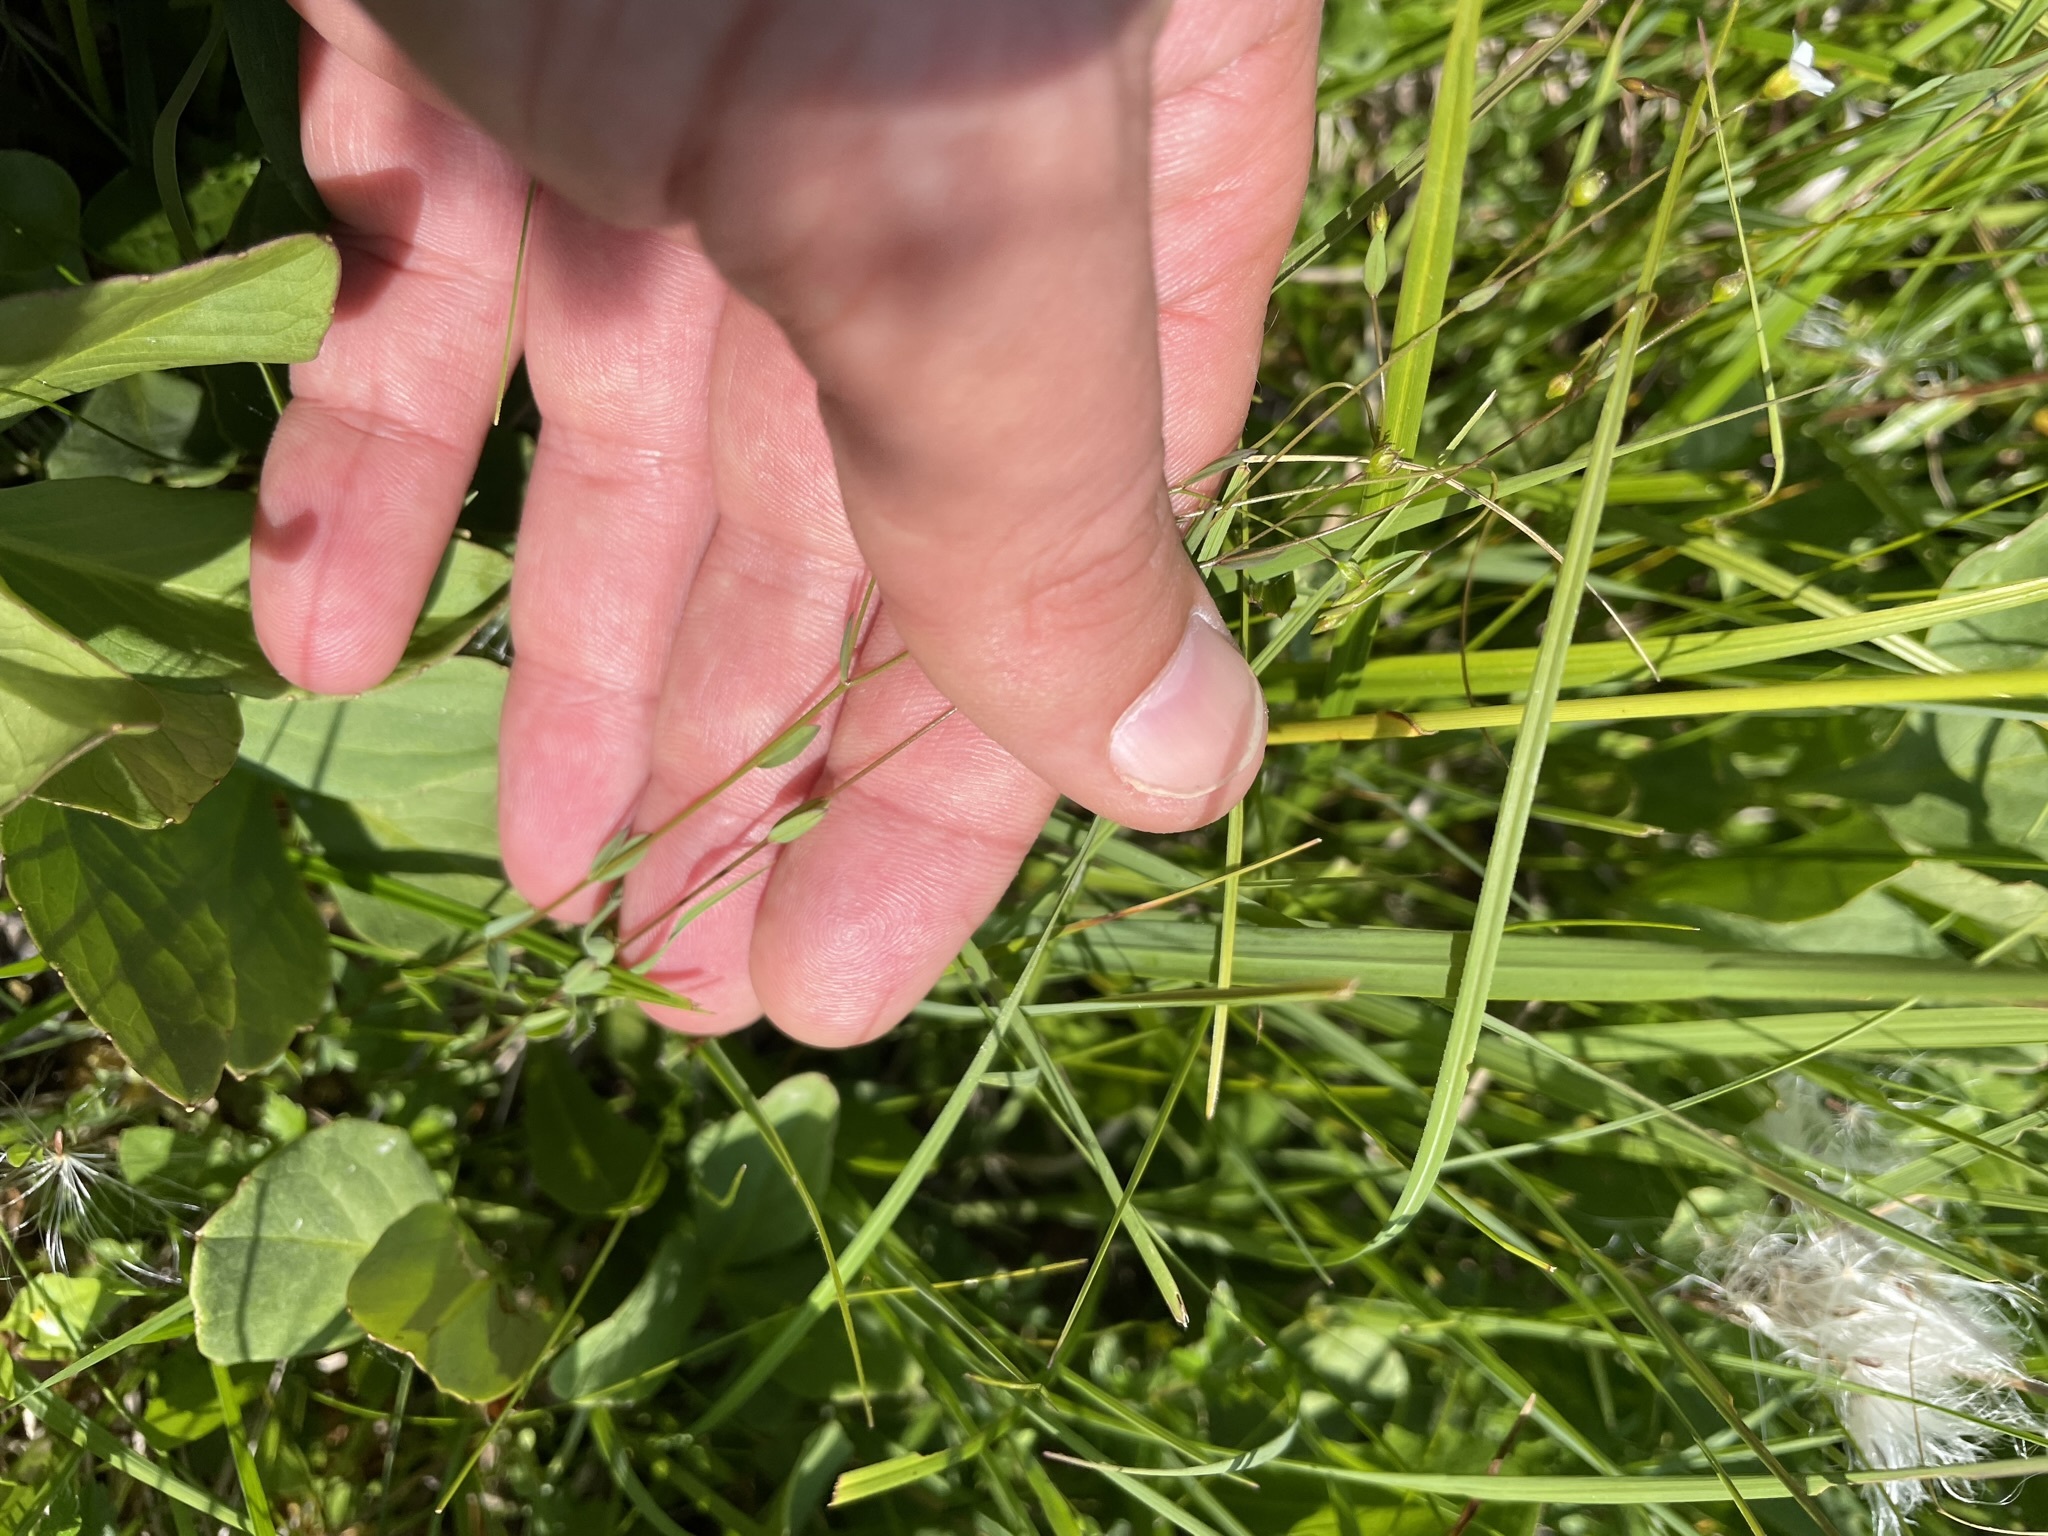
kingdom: Plantae
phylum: Tracheophyta
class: Magnoliopsida
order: Malpighiales
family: Linaceae
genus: Linum
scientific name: Linum catharticum
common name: Fairy flax
